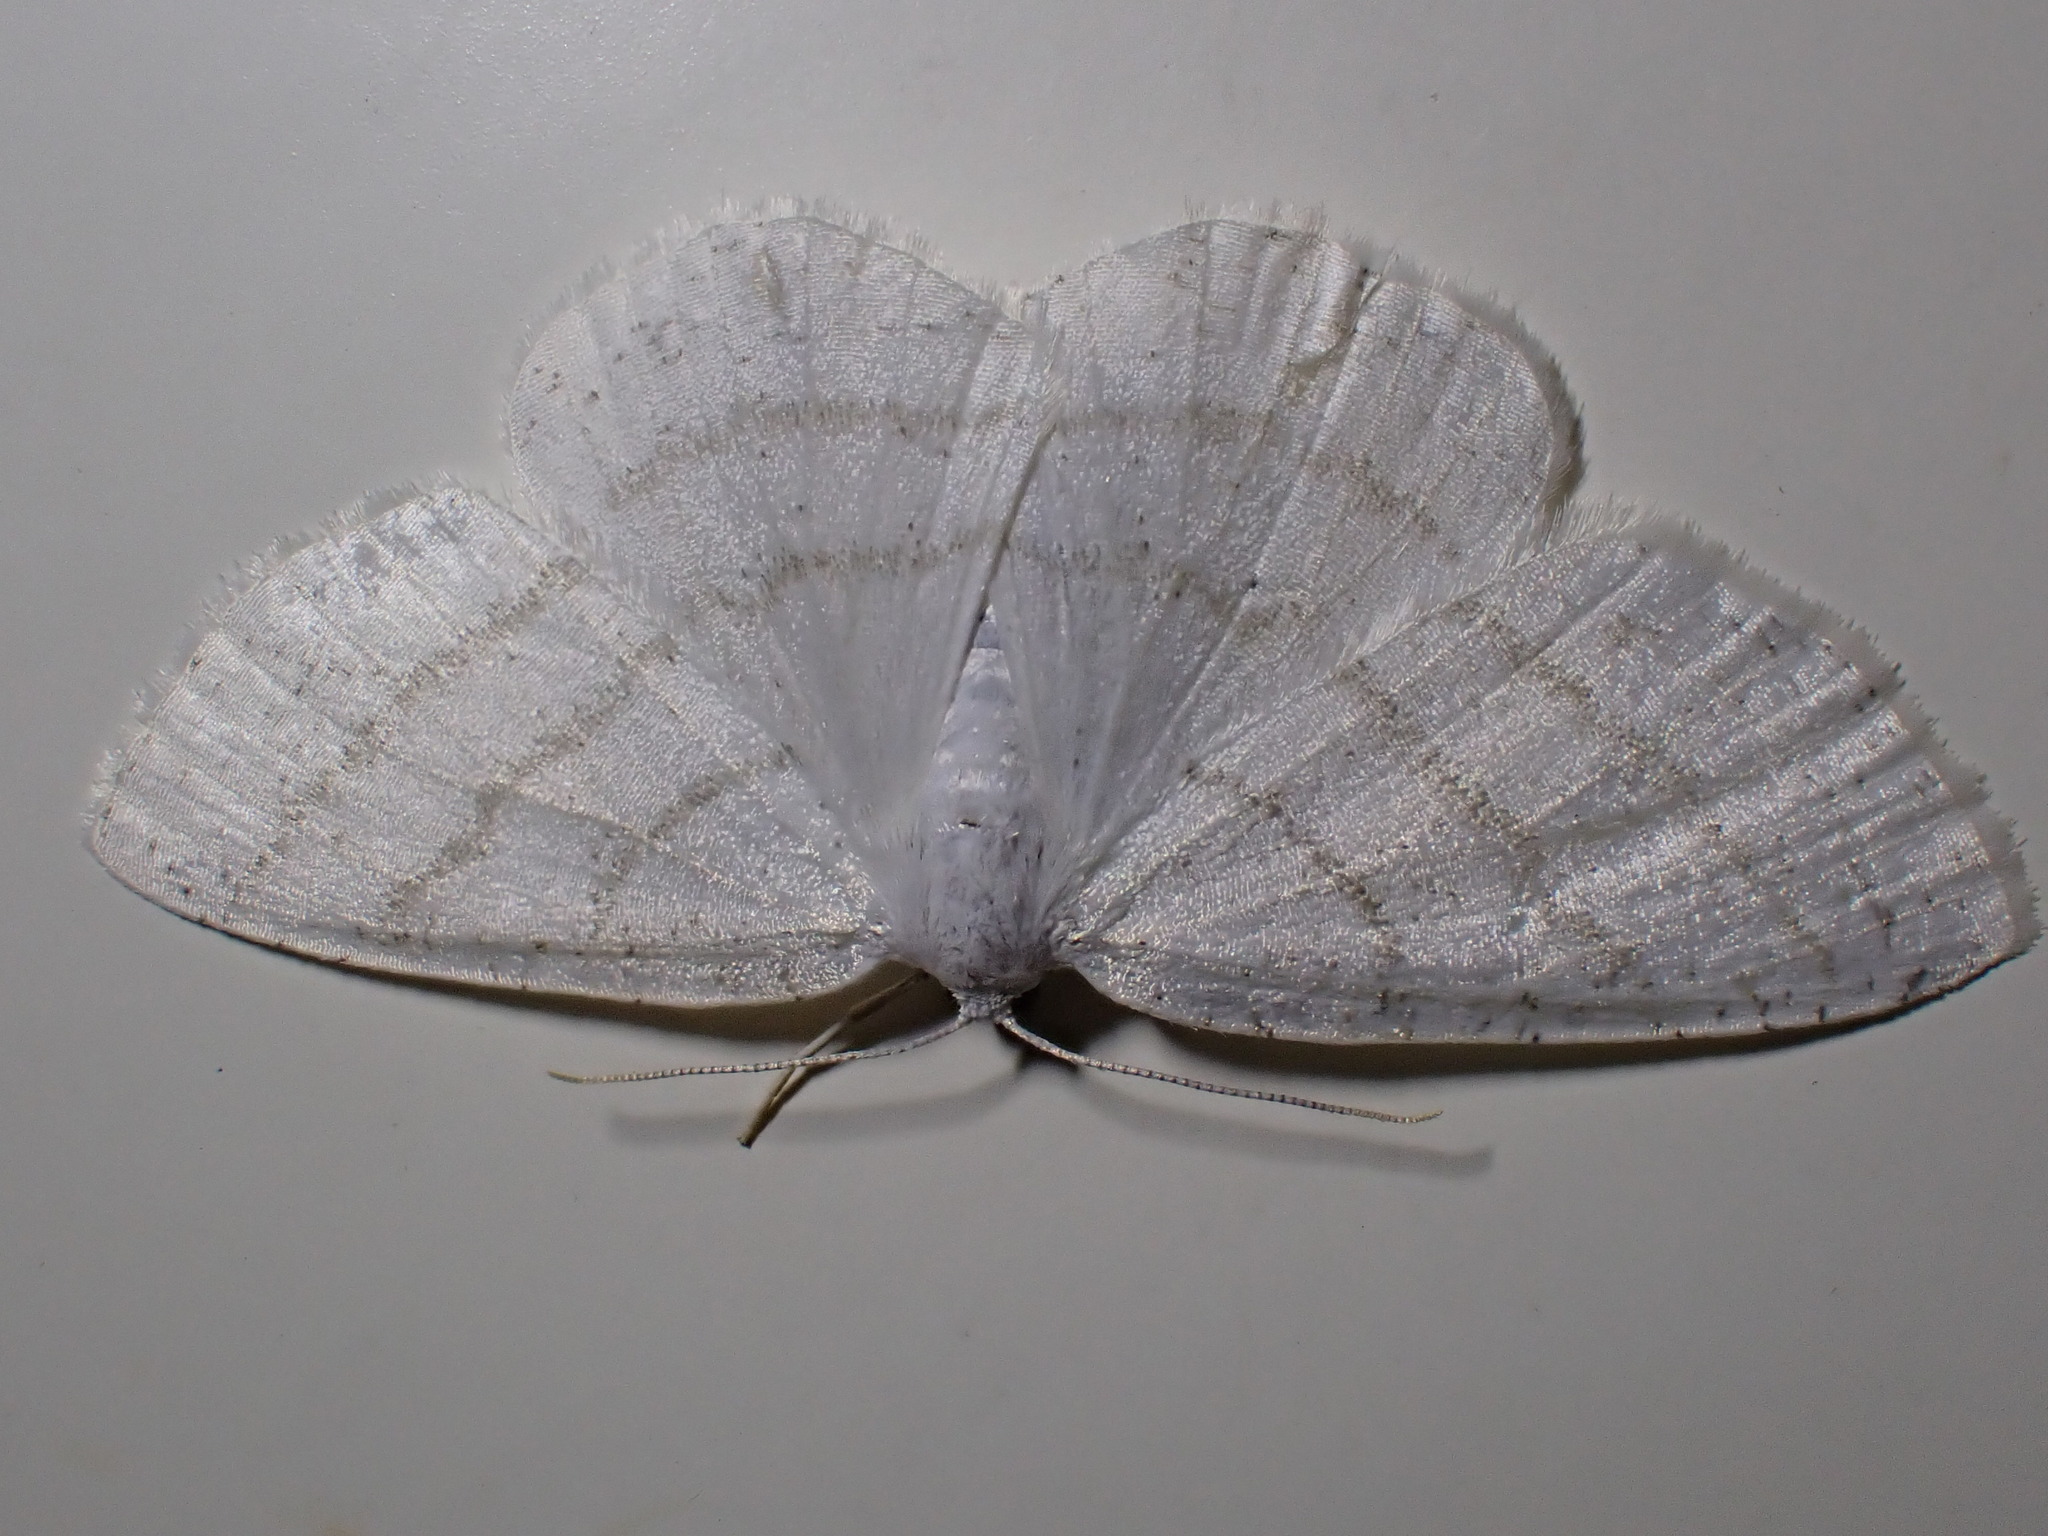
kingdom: Animalia
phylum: Arthropoda
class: Insecta
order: Lepidoptera
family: Geometridae
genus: Cabera
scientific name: Cabera pusaria
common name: Common white wave
